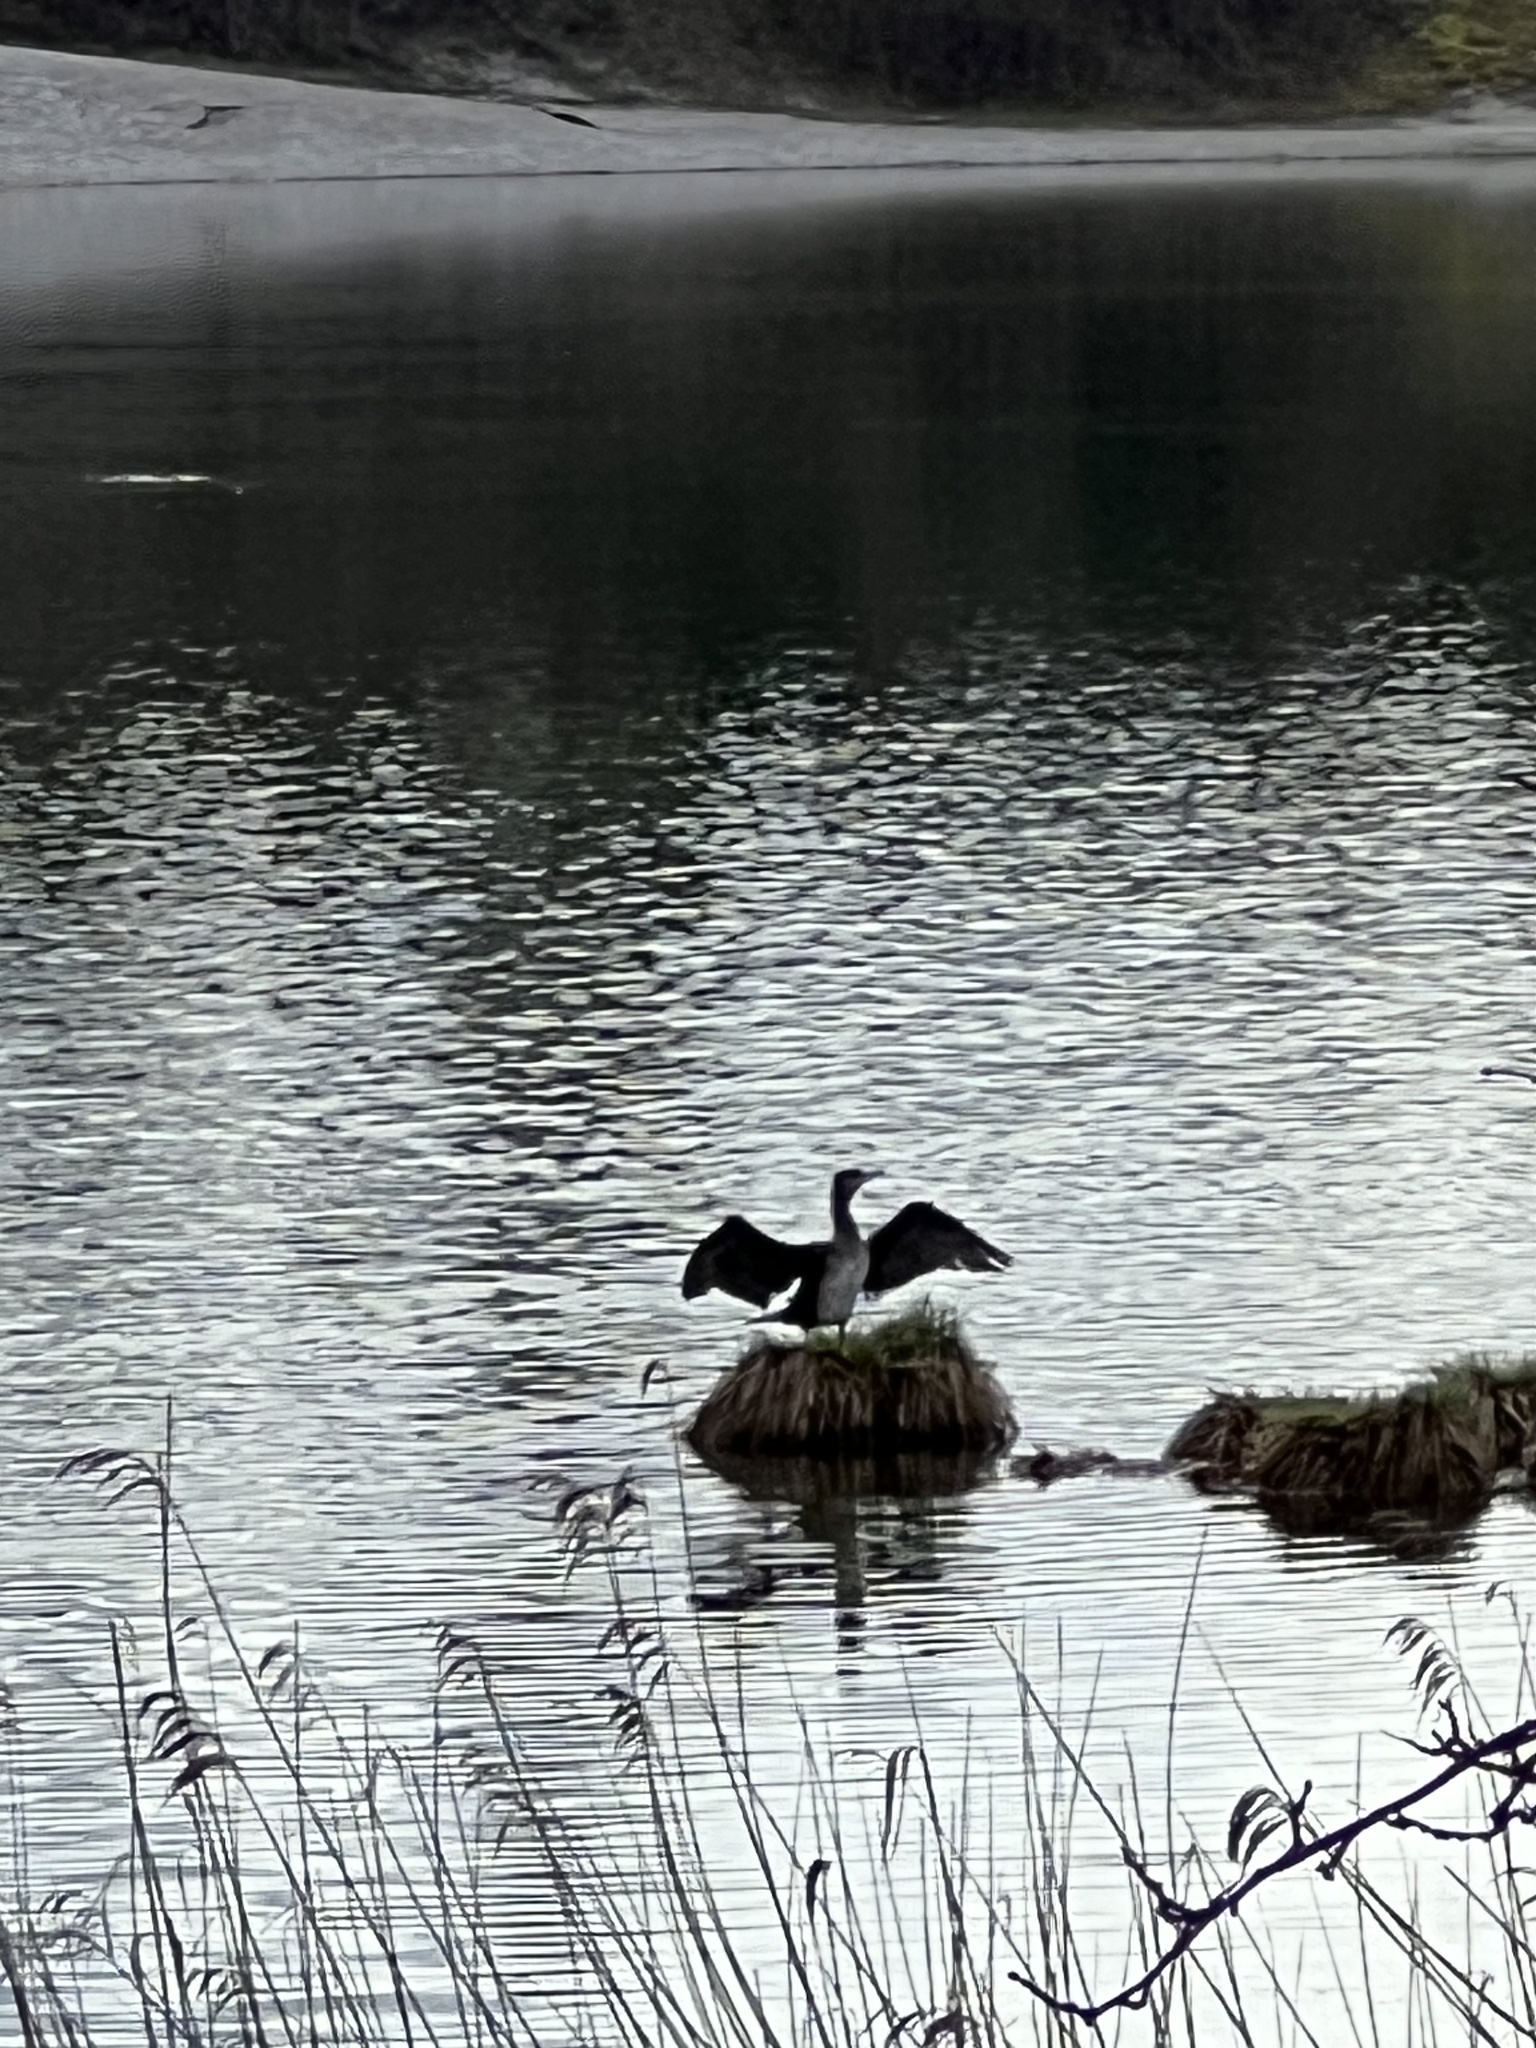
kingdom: Animalia
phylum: Chordata
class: Aves
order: Suliformes
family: Phalacrocoracidae
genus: Phalacrocorax
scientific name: Phalacrocorax carbo
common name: Great cormorant
